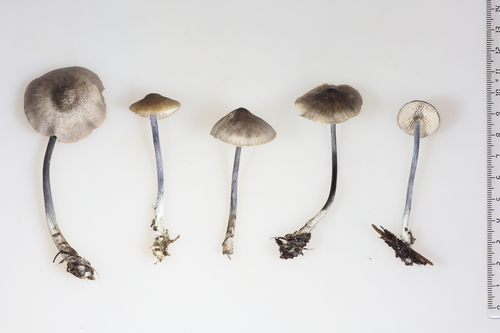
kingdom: Fungi
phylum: Basidiomycota
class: Agaricomycetes
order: Agaricales
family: Entolomataceae
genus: Entoloma
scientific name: Entoloma lampropus
